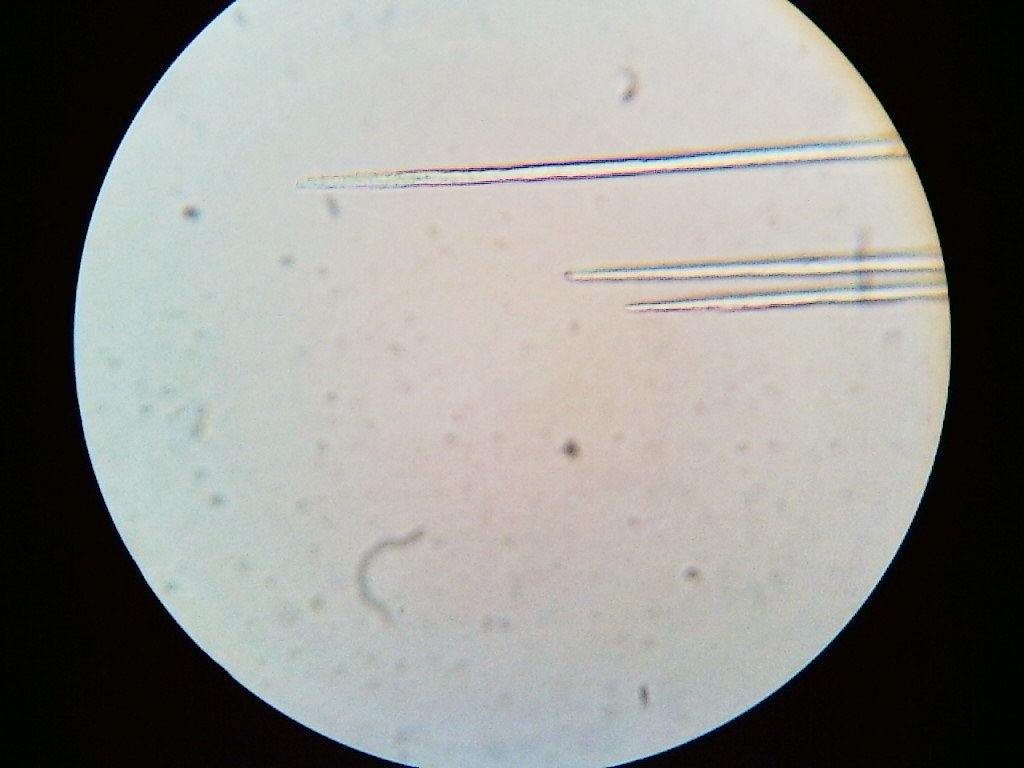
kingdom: Fungi
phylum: Basidiomycota
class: Pucciniomycetes
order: Pucciniales
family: Pucciniaceae
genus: Puccinia
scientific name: Puccinia liliacearum
